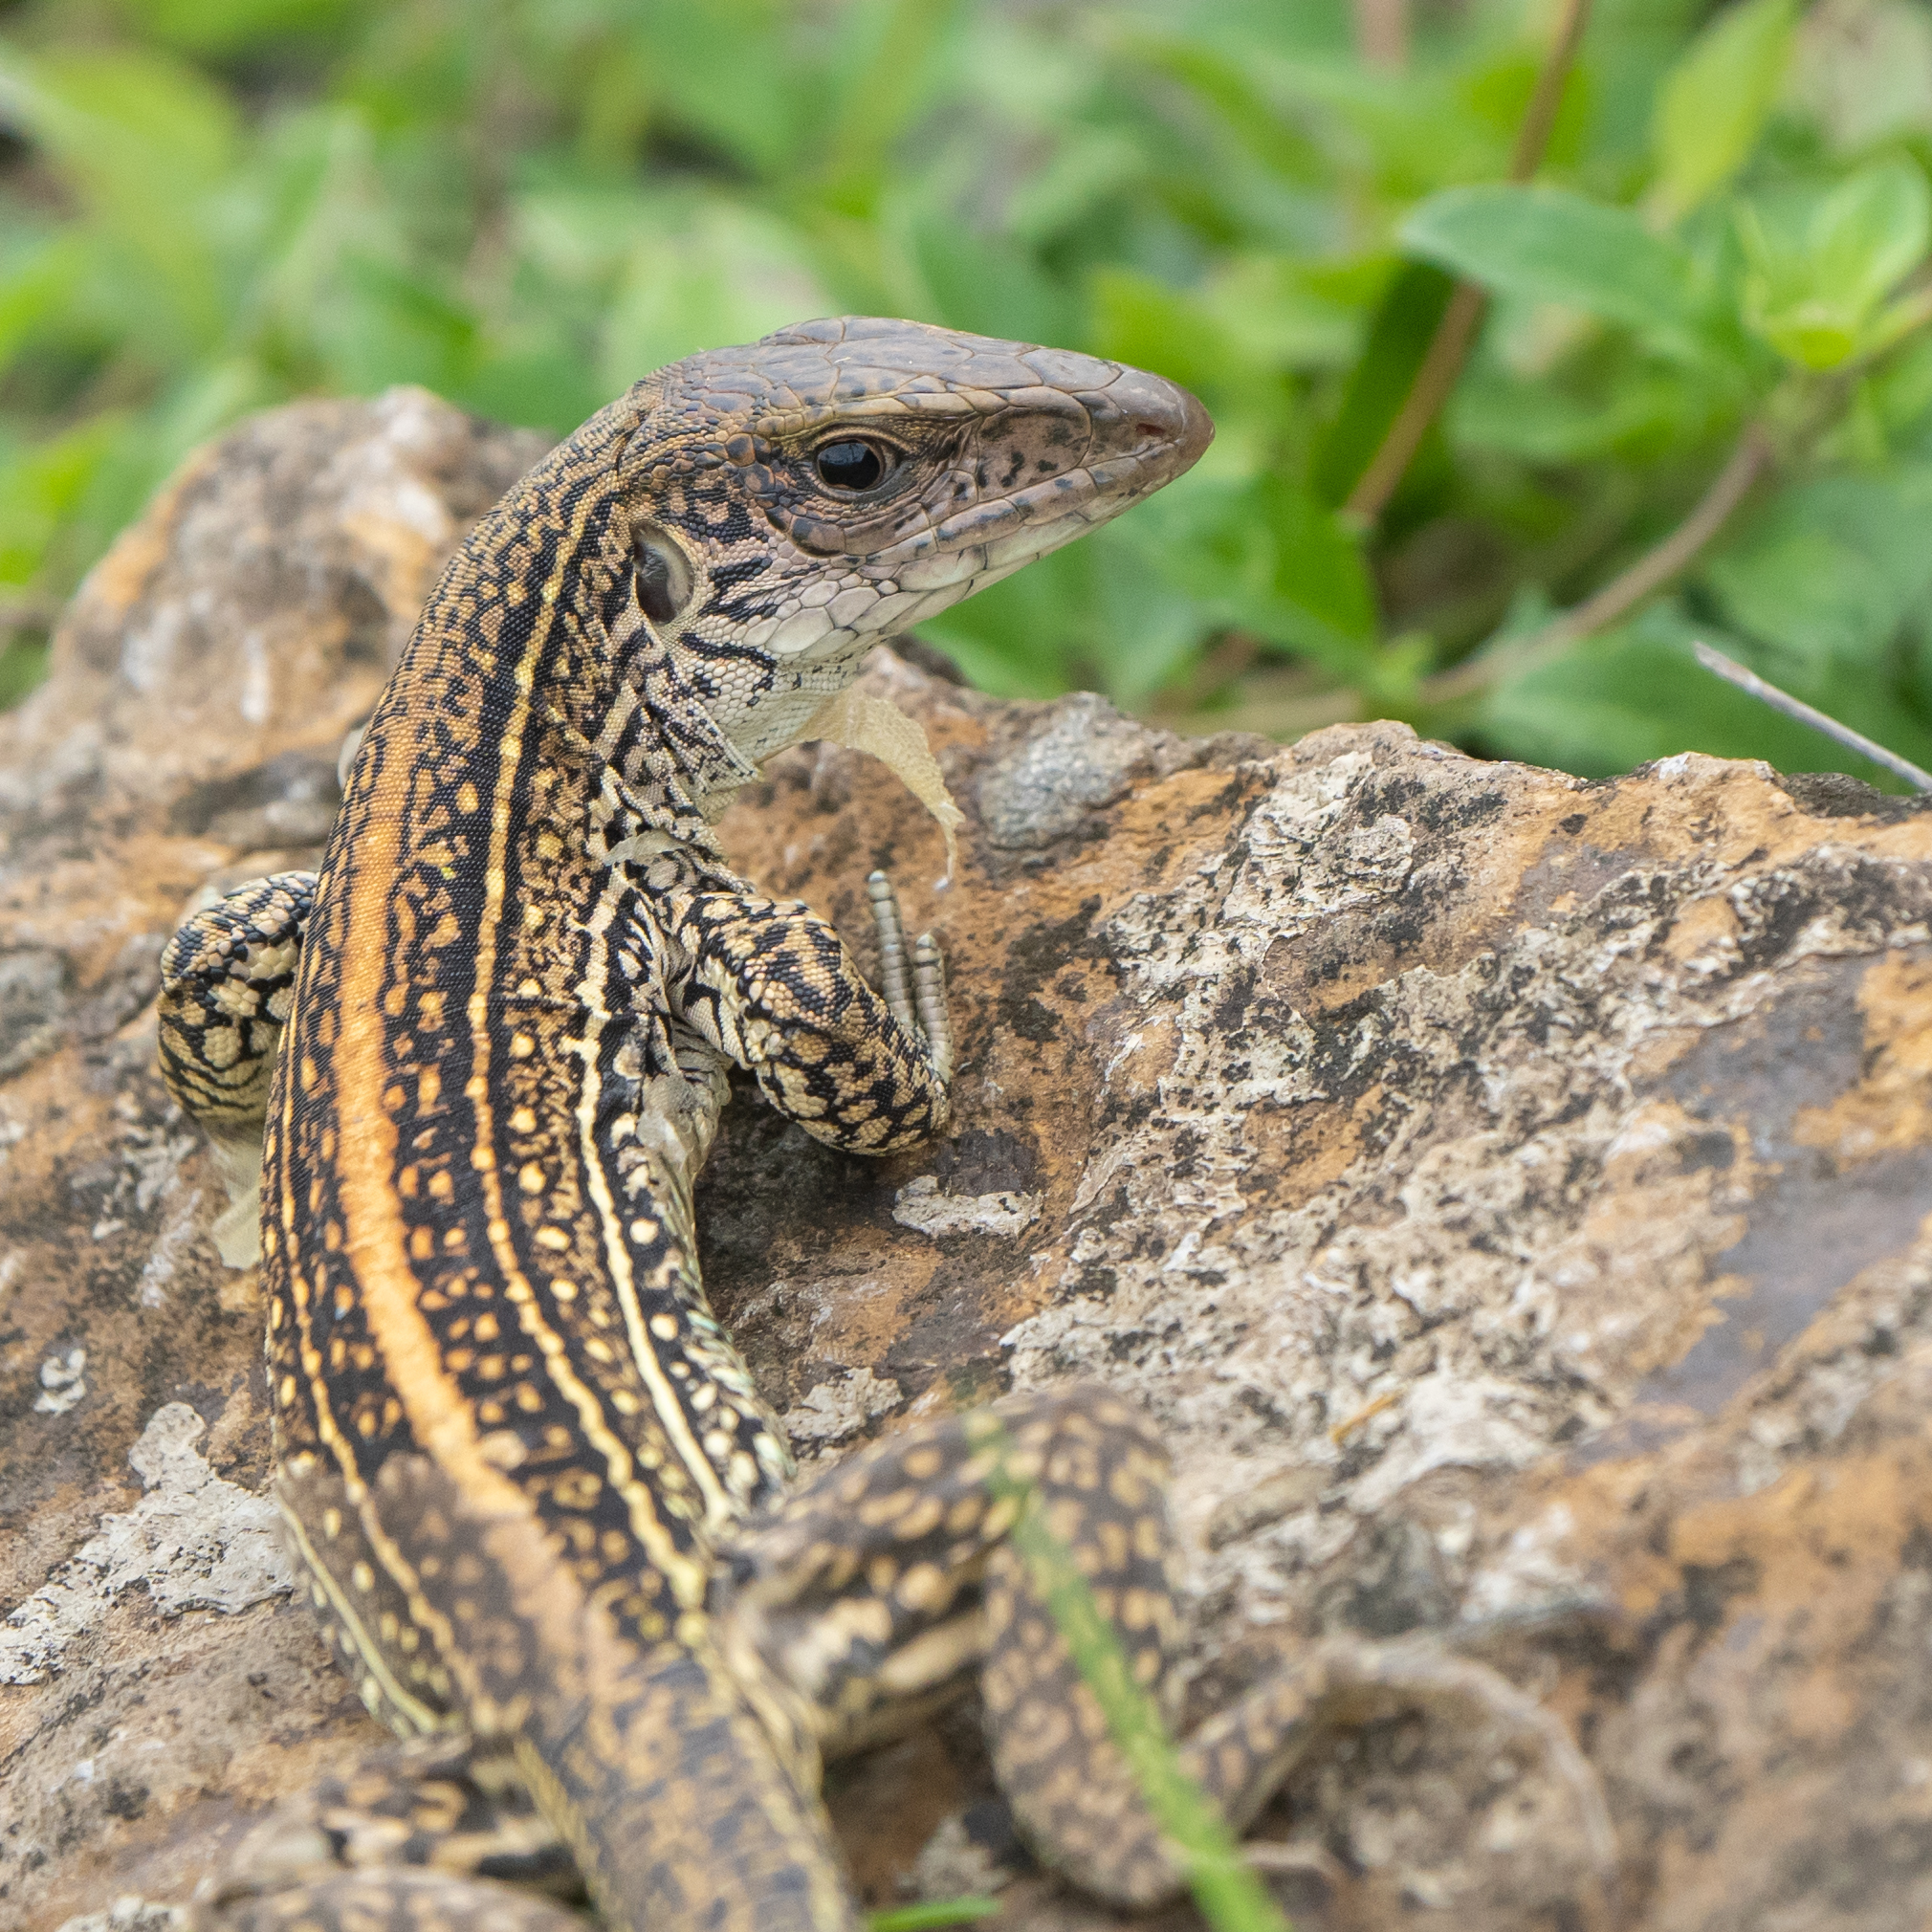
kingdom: Animalia
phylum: Chordata
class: Squamata
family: Teiidae
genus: Ameiva
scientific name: Ameiva praesignis
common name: Giant ameiva
